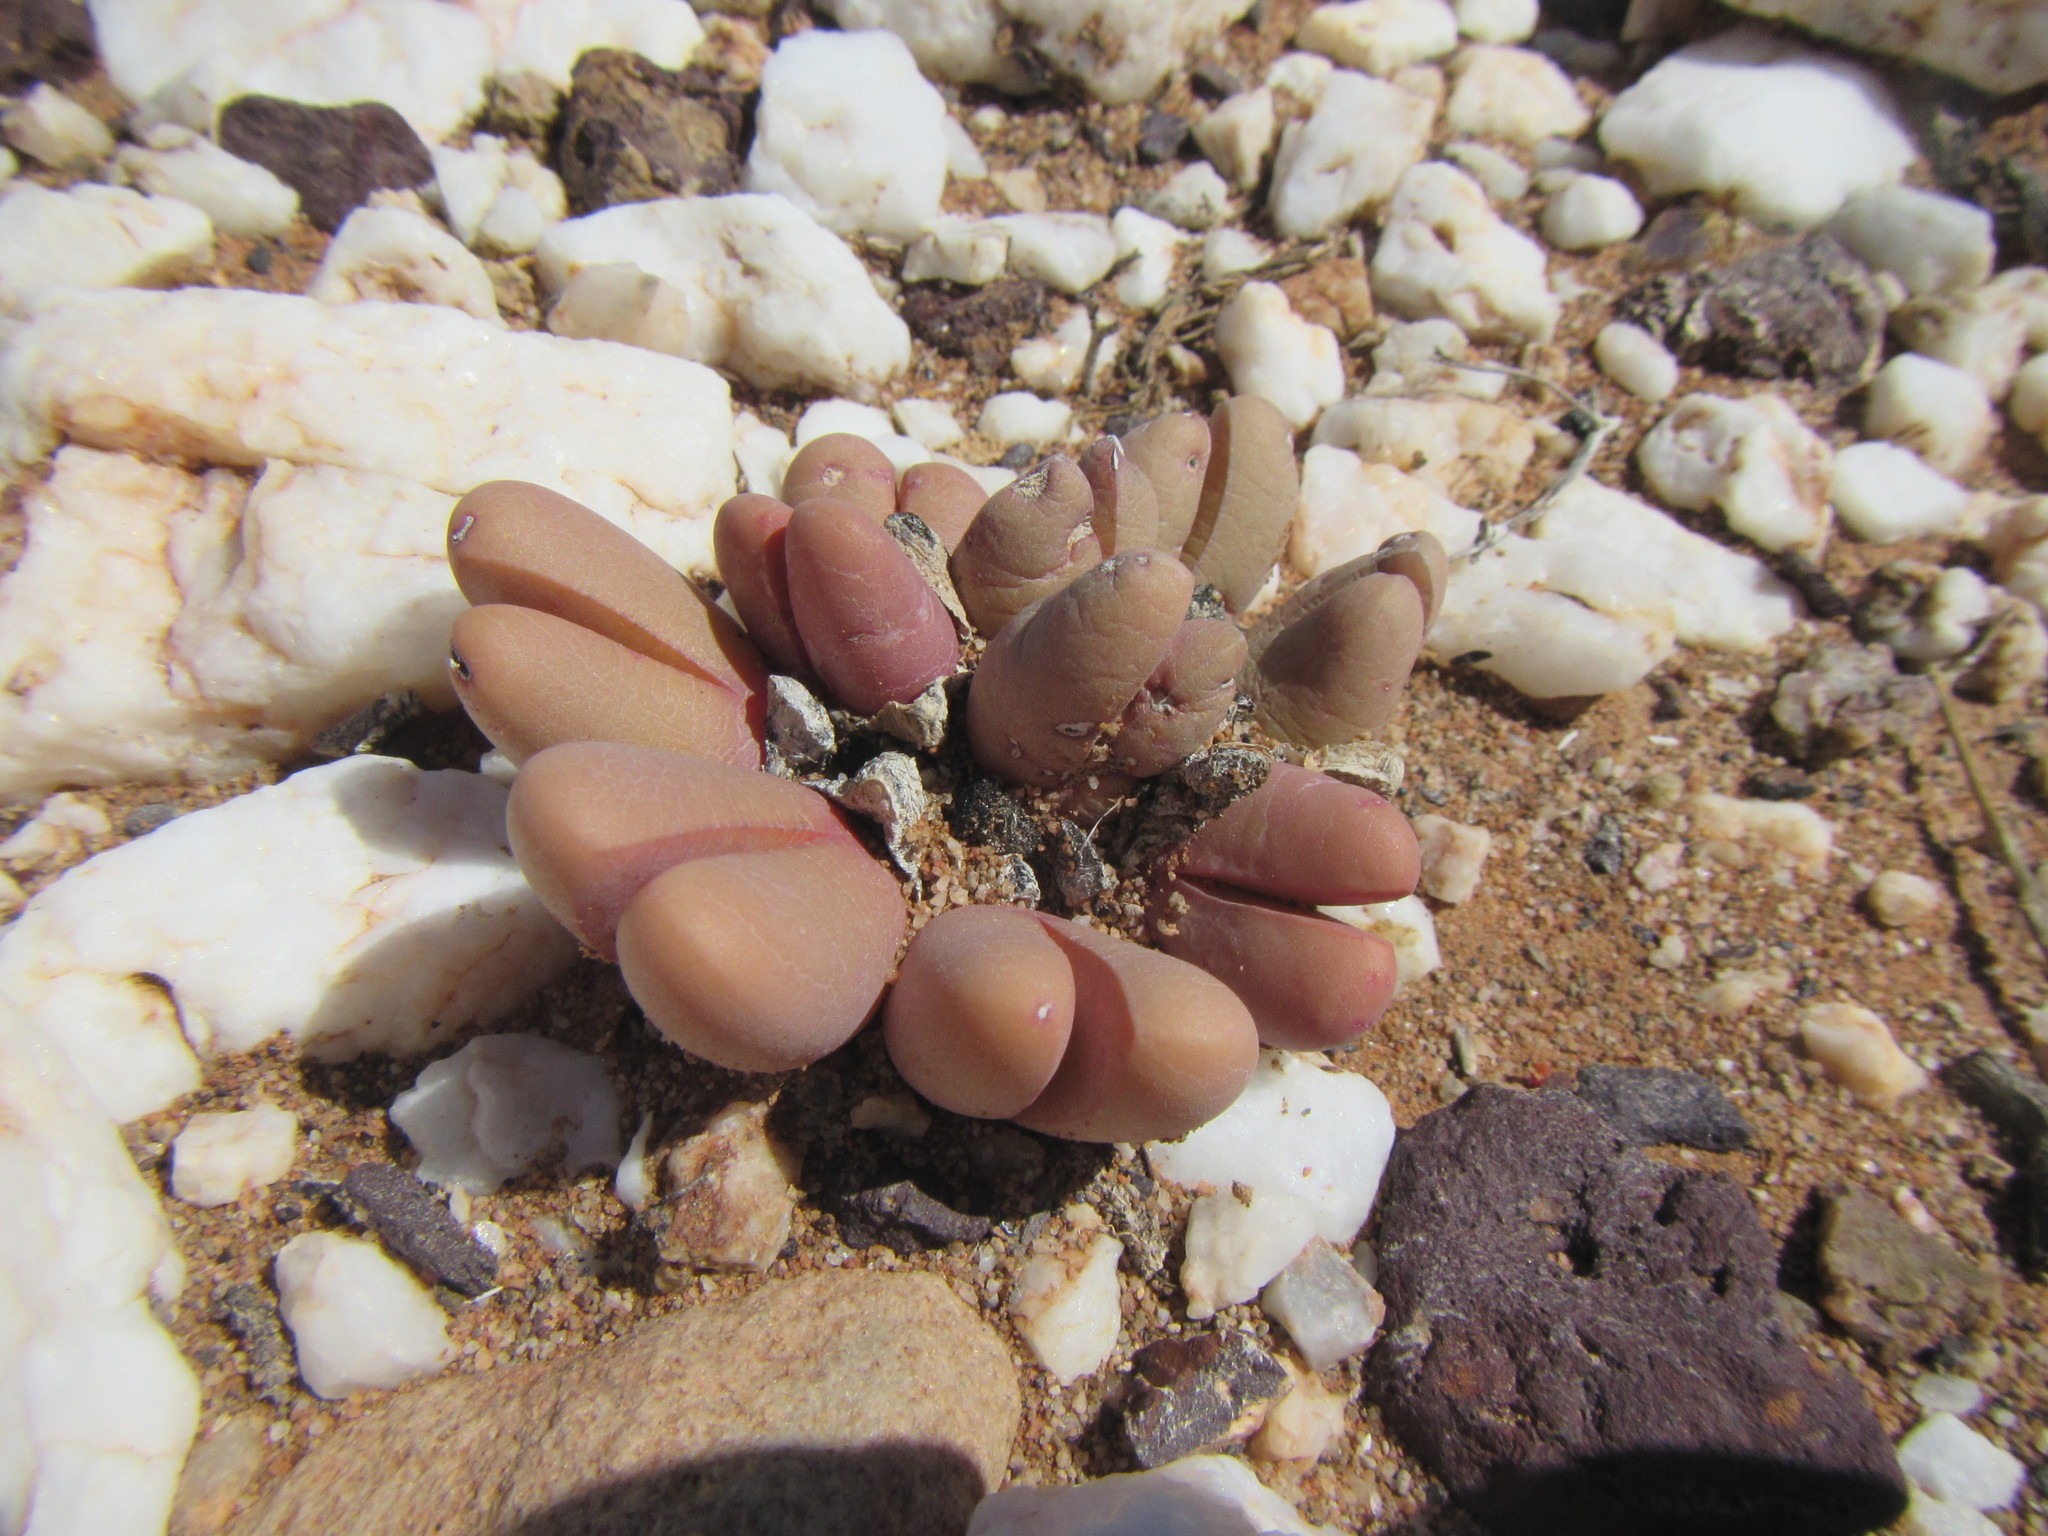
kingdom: Plantae
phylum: Tracheophyta
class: Magnoliopsida
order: Caryophyllales
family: Aizoaceae
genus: Antegibbaeum
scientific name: Antegibbaeum fissoides
